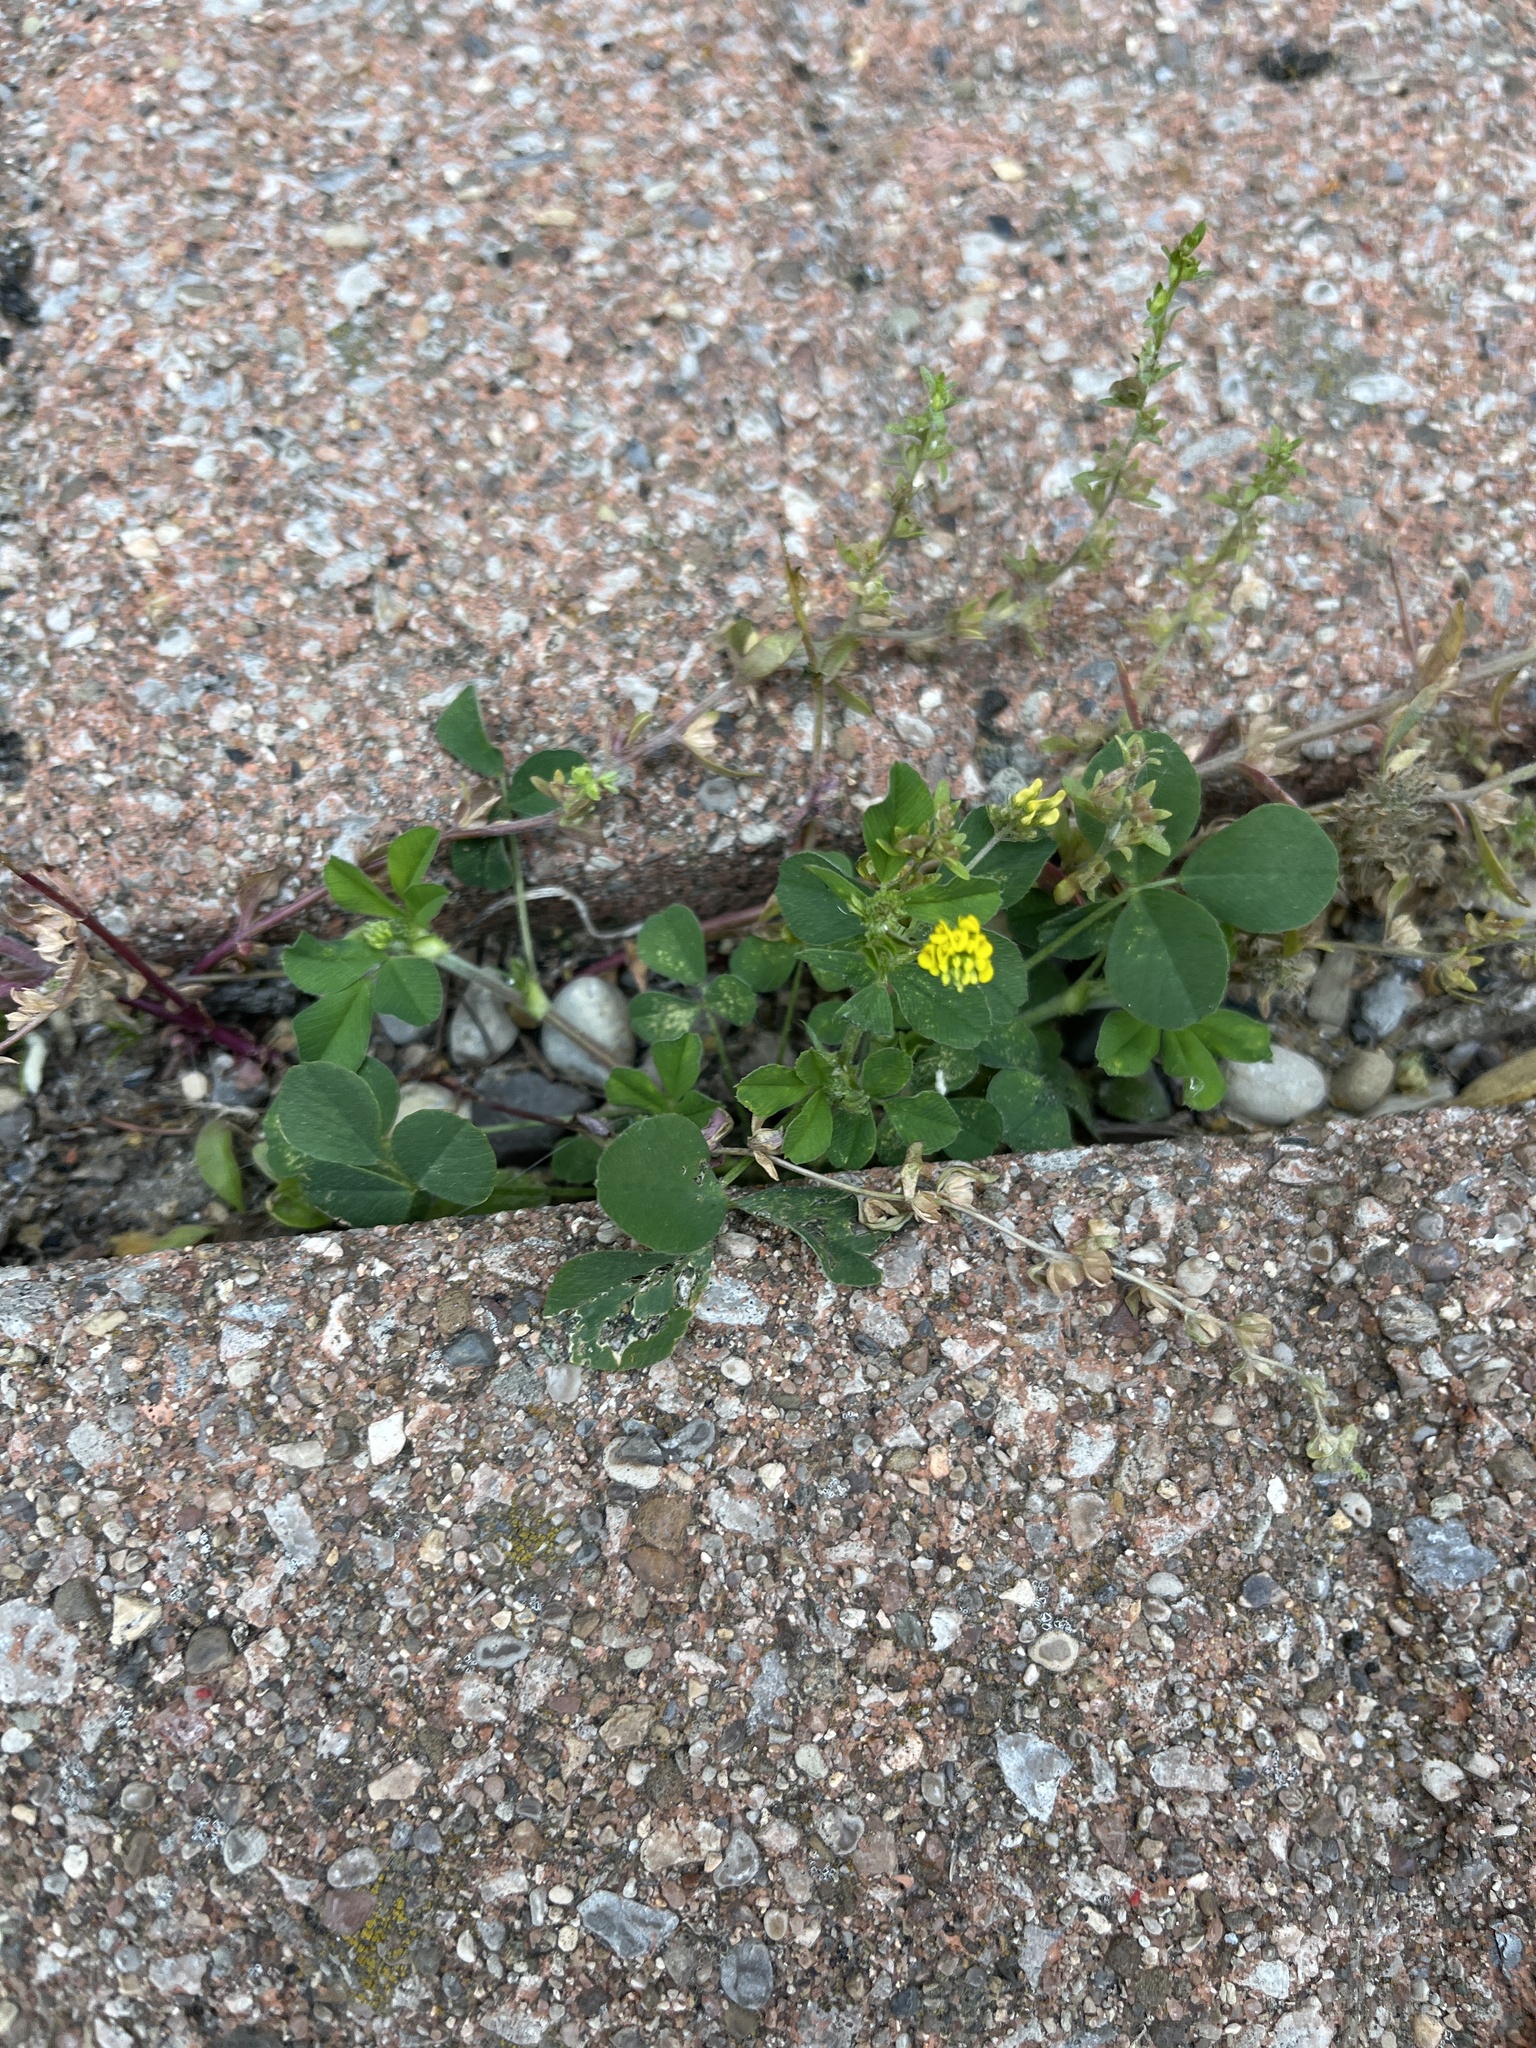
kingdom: Plantae
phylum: Tracheophyta
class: Magnoliopsida
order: Fabales
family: Fabaceae
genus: Medicago
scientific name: Medicago lupulina
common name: Black medick
